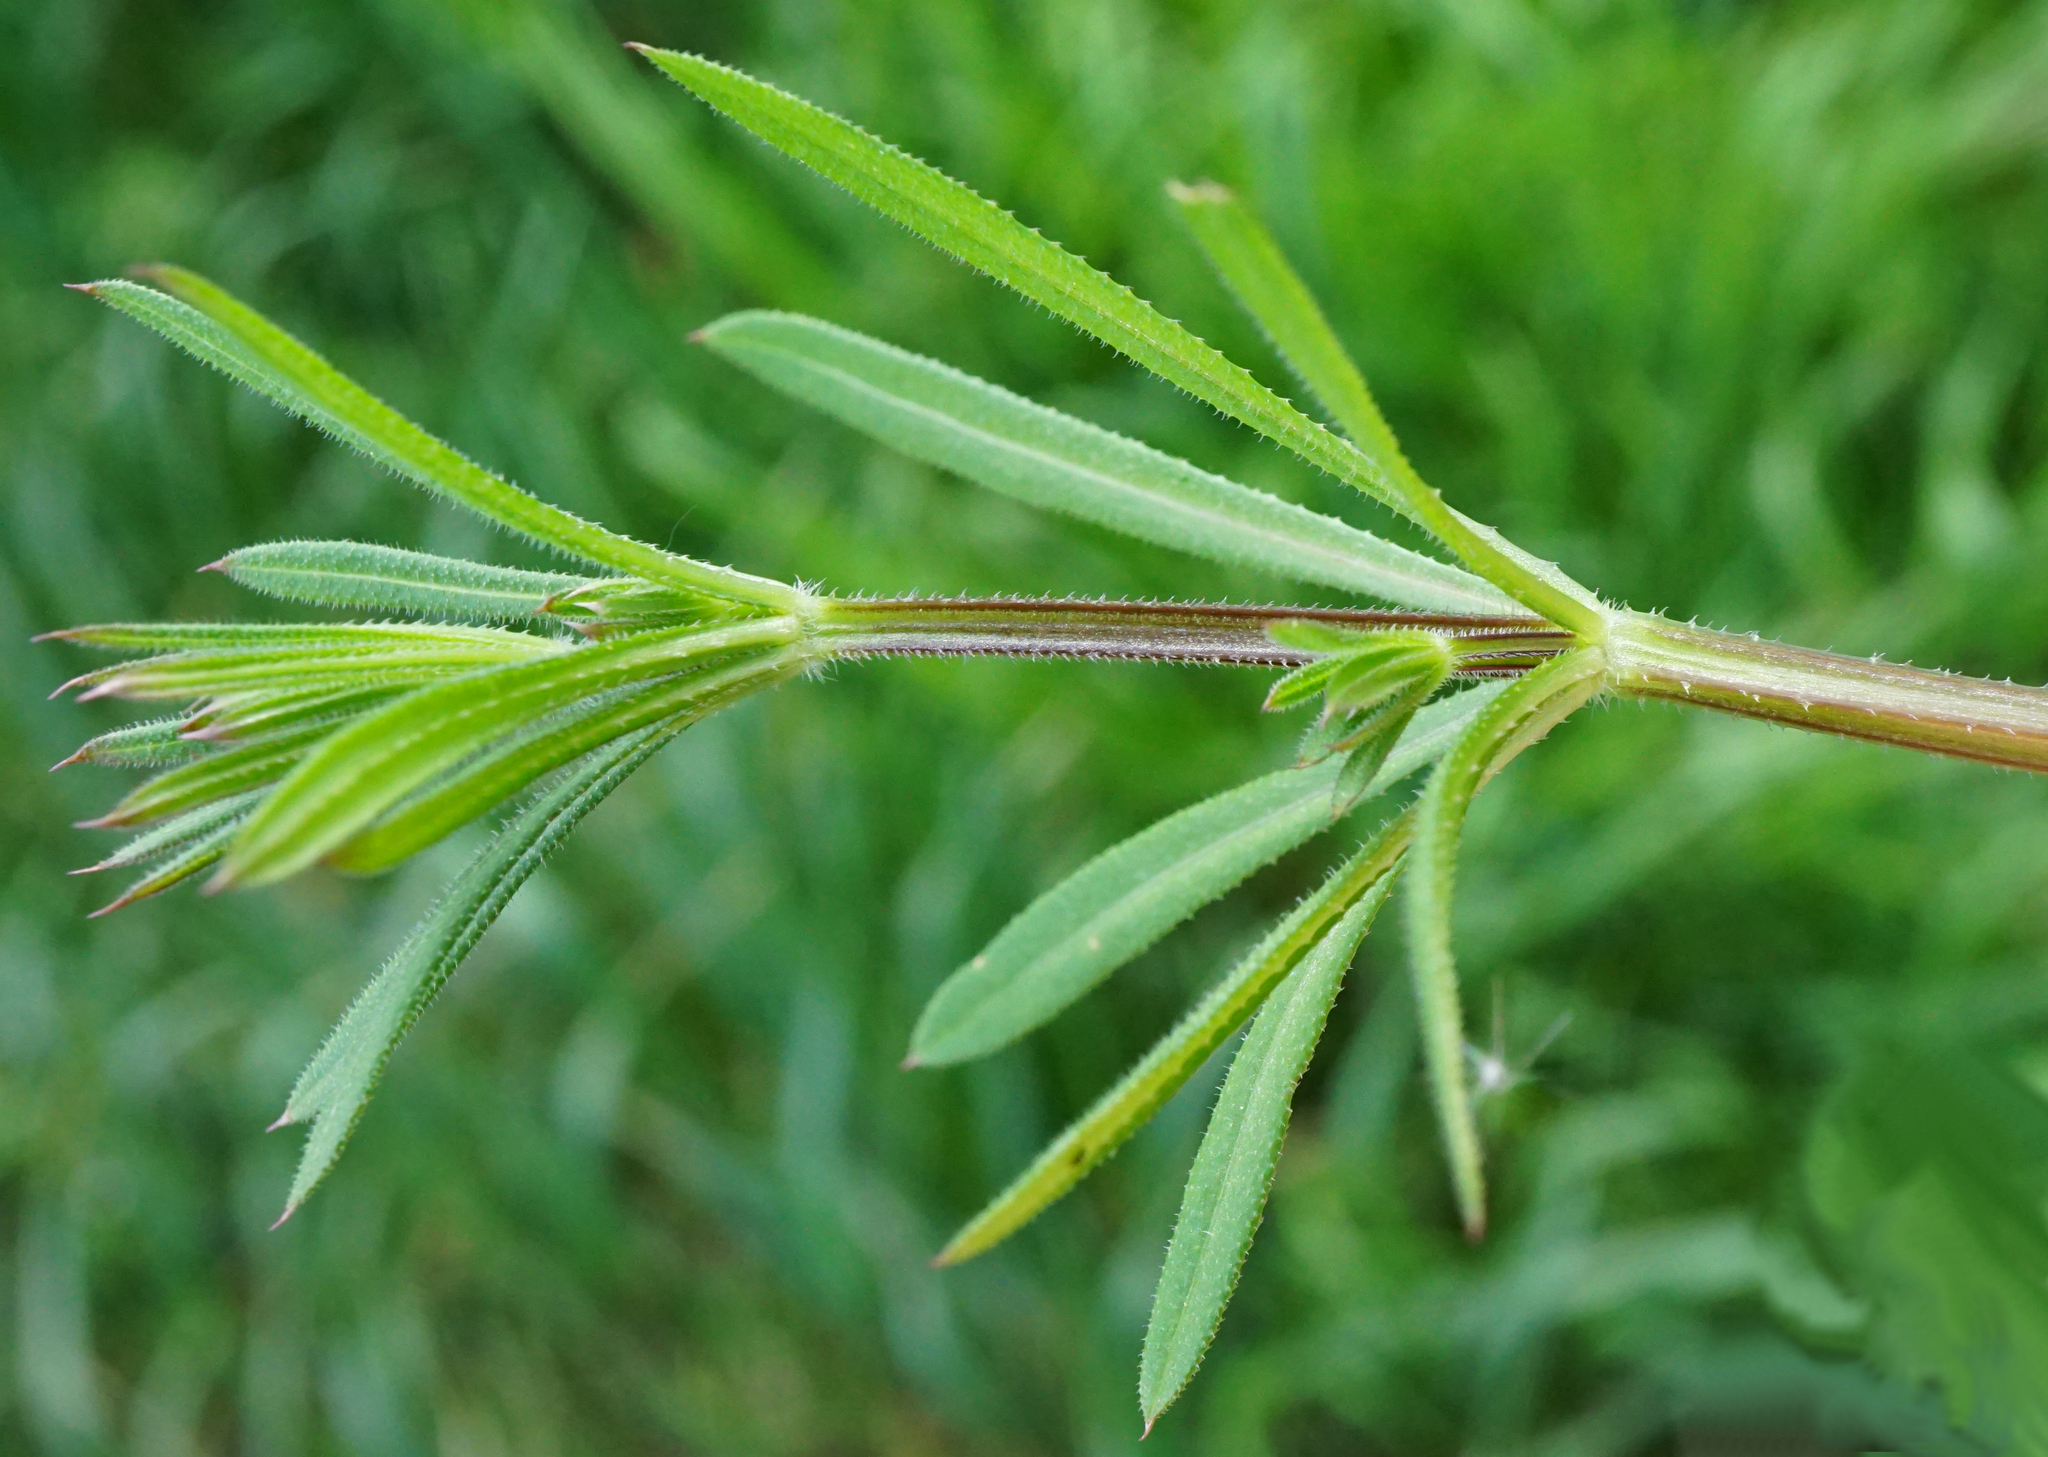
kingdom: Plantae
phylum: Tracheophyta
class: Magnoliopsida
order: Gentianales
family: Rubiaceae
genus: Galium
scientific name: Galium aparine
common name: Cleavers
